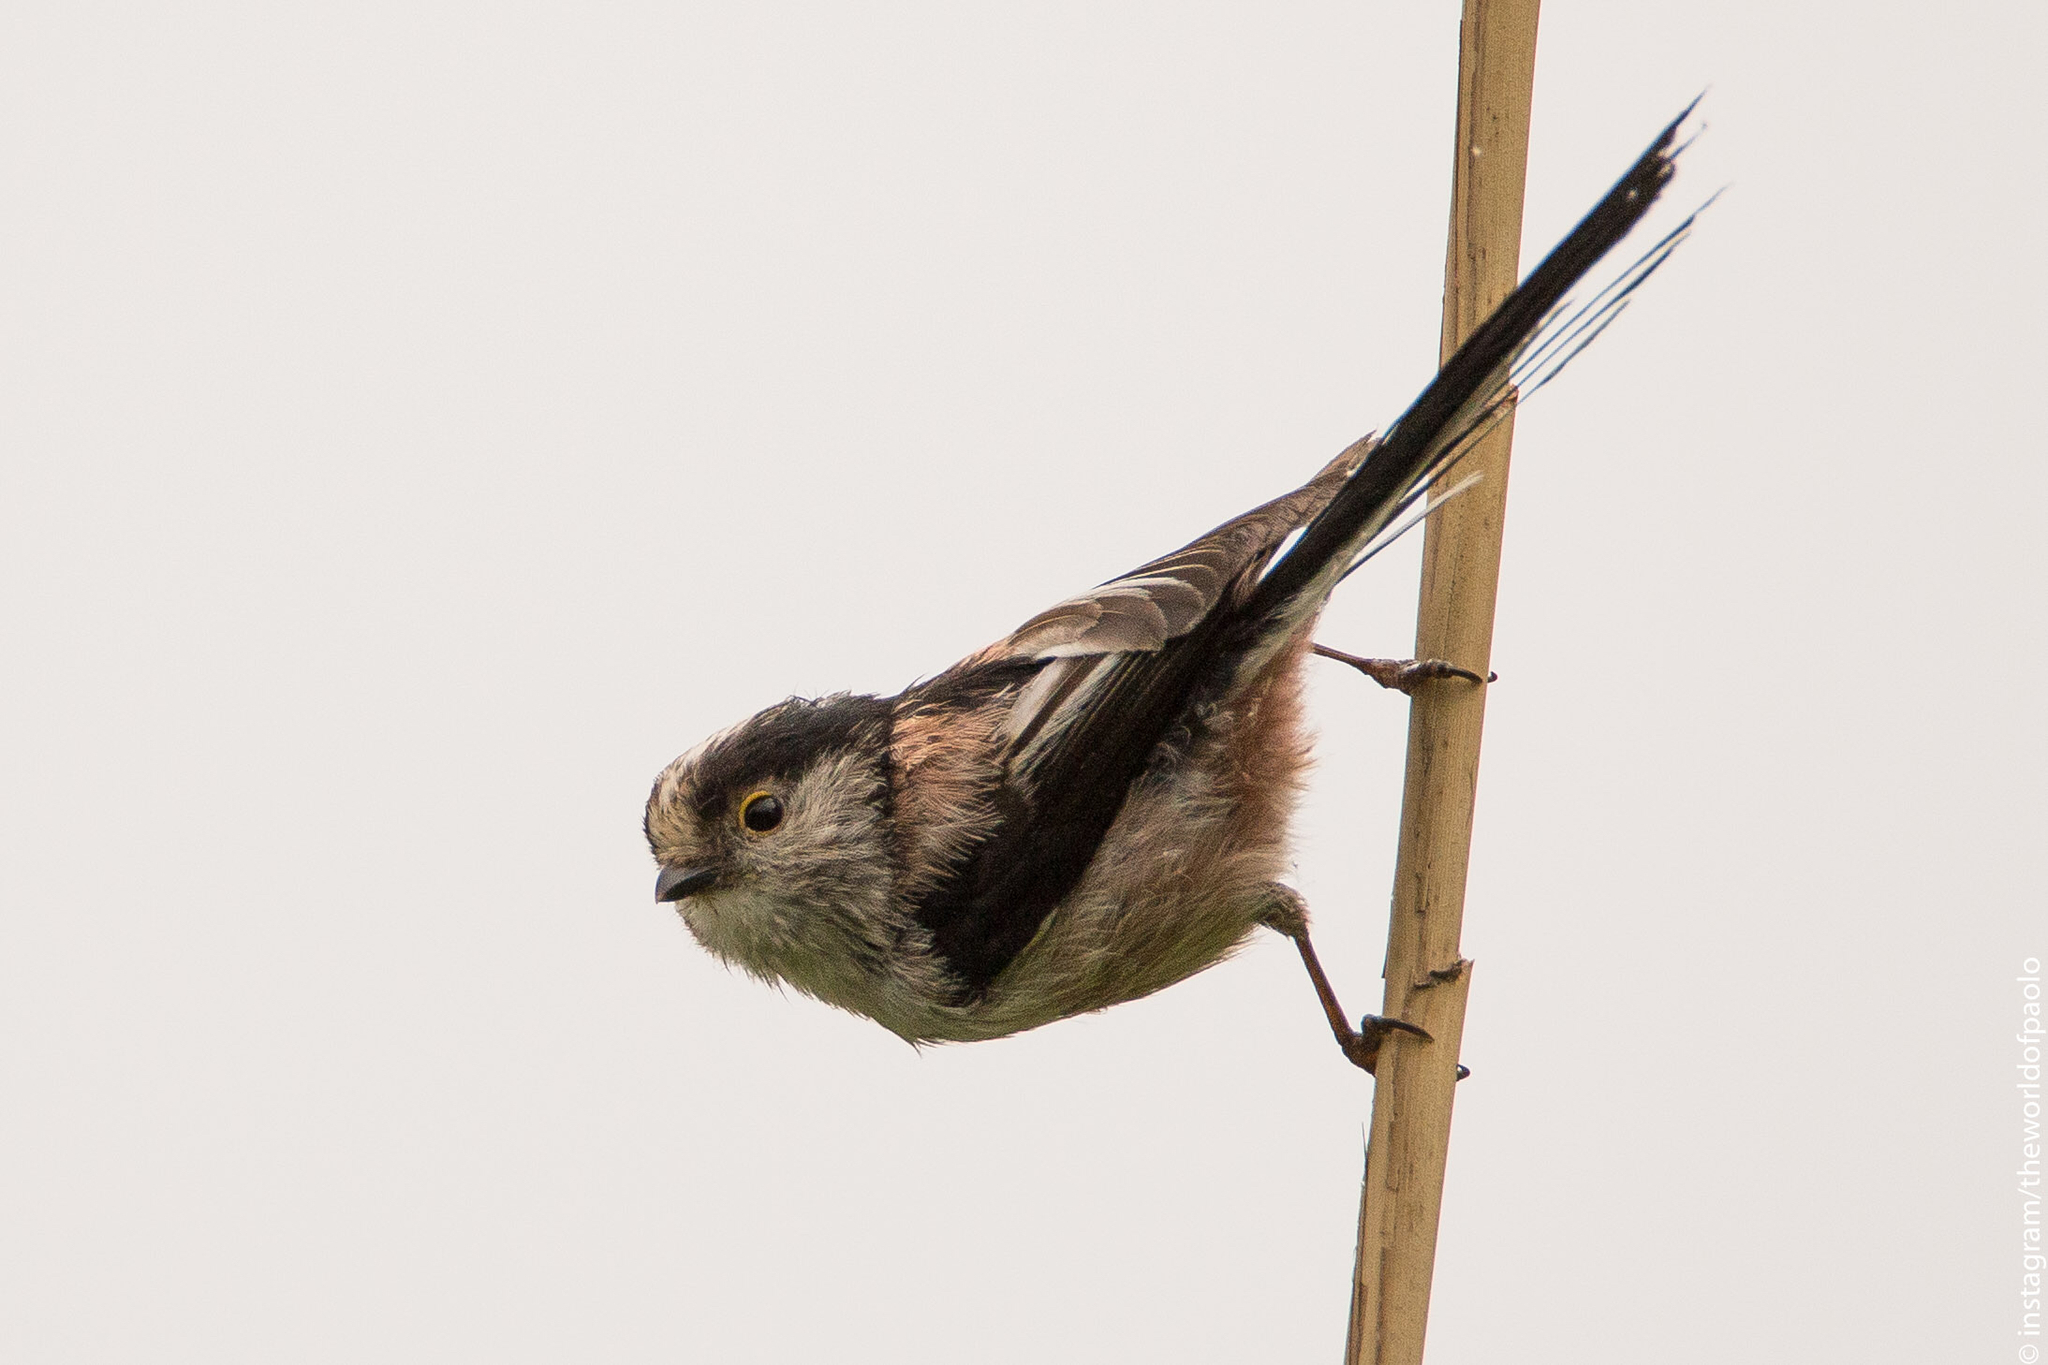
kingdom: Animalia
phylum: Chordata
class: Aves
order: Passeriformes
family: Aegithalidae
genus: Aegithalos
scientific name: Aegithalos caudatus
